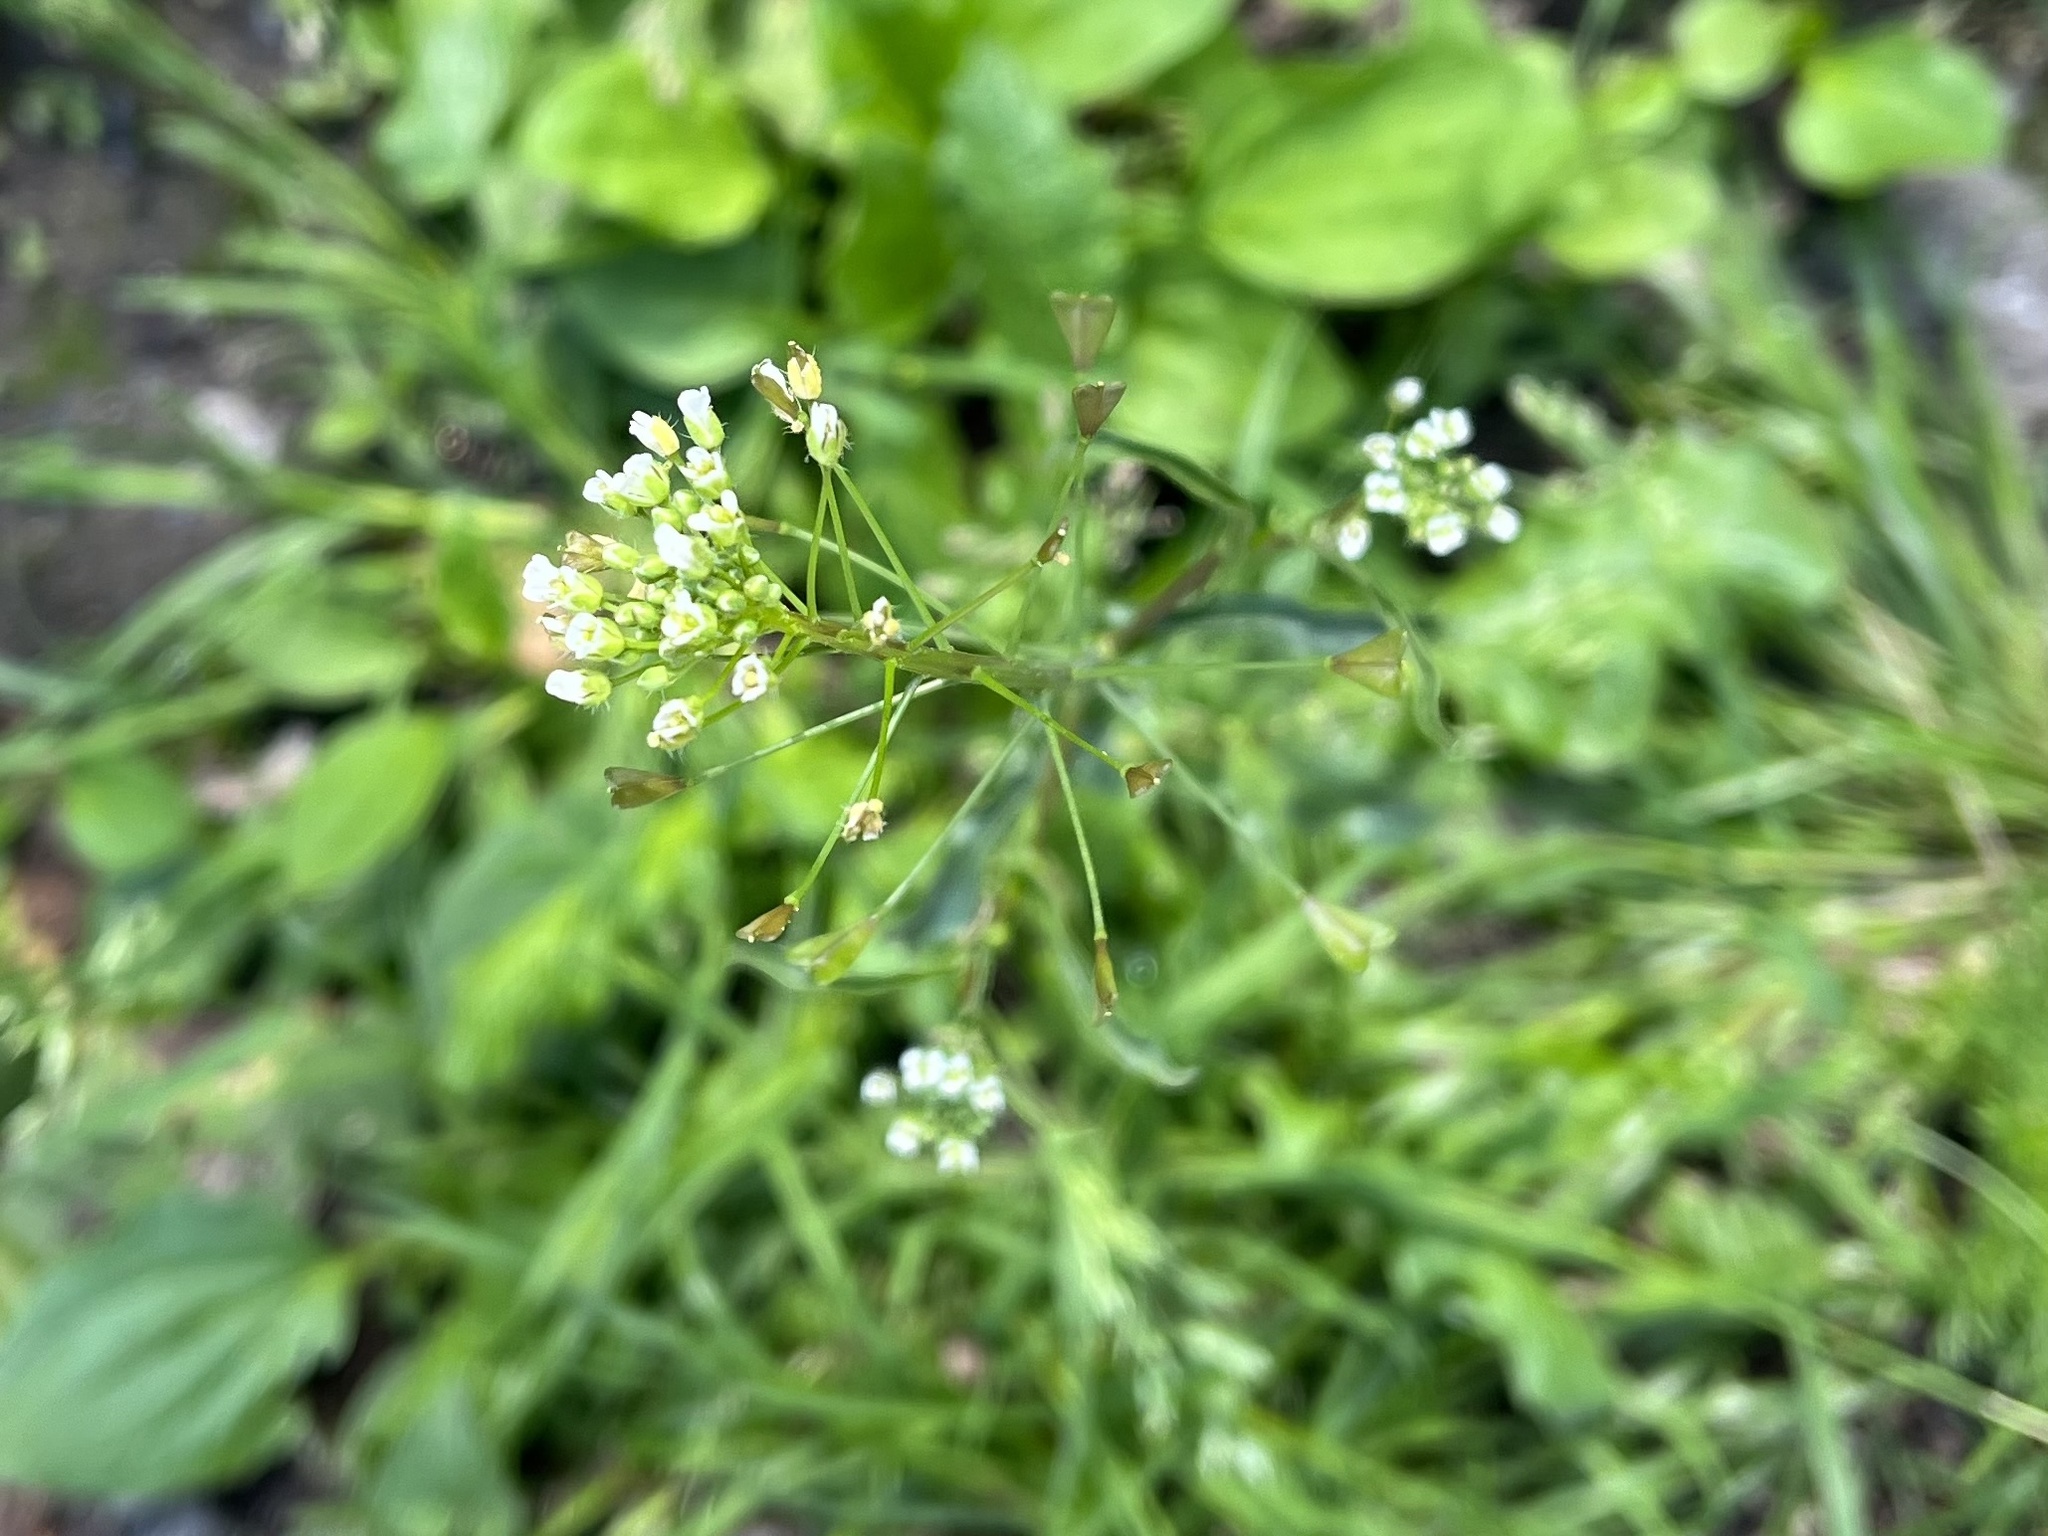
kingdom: Plantae
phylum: Tracheophyta
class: Magnoliopsida
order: Brassicales
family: Brassicaceae
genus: Capsella
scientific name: Capsella bursa-pastoris
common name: Shepherd's purse
